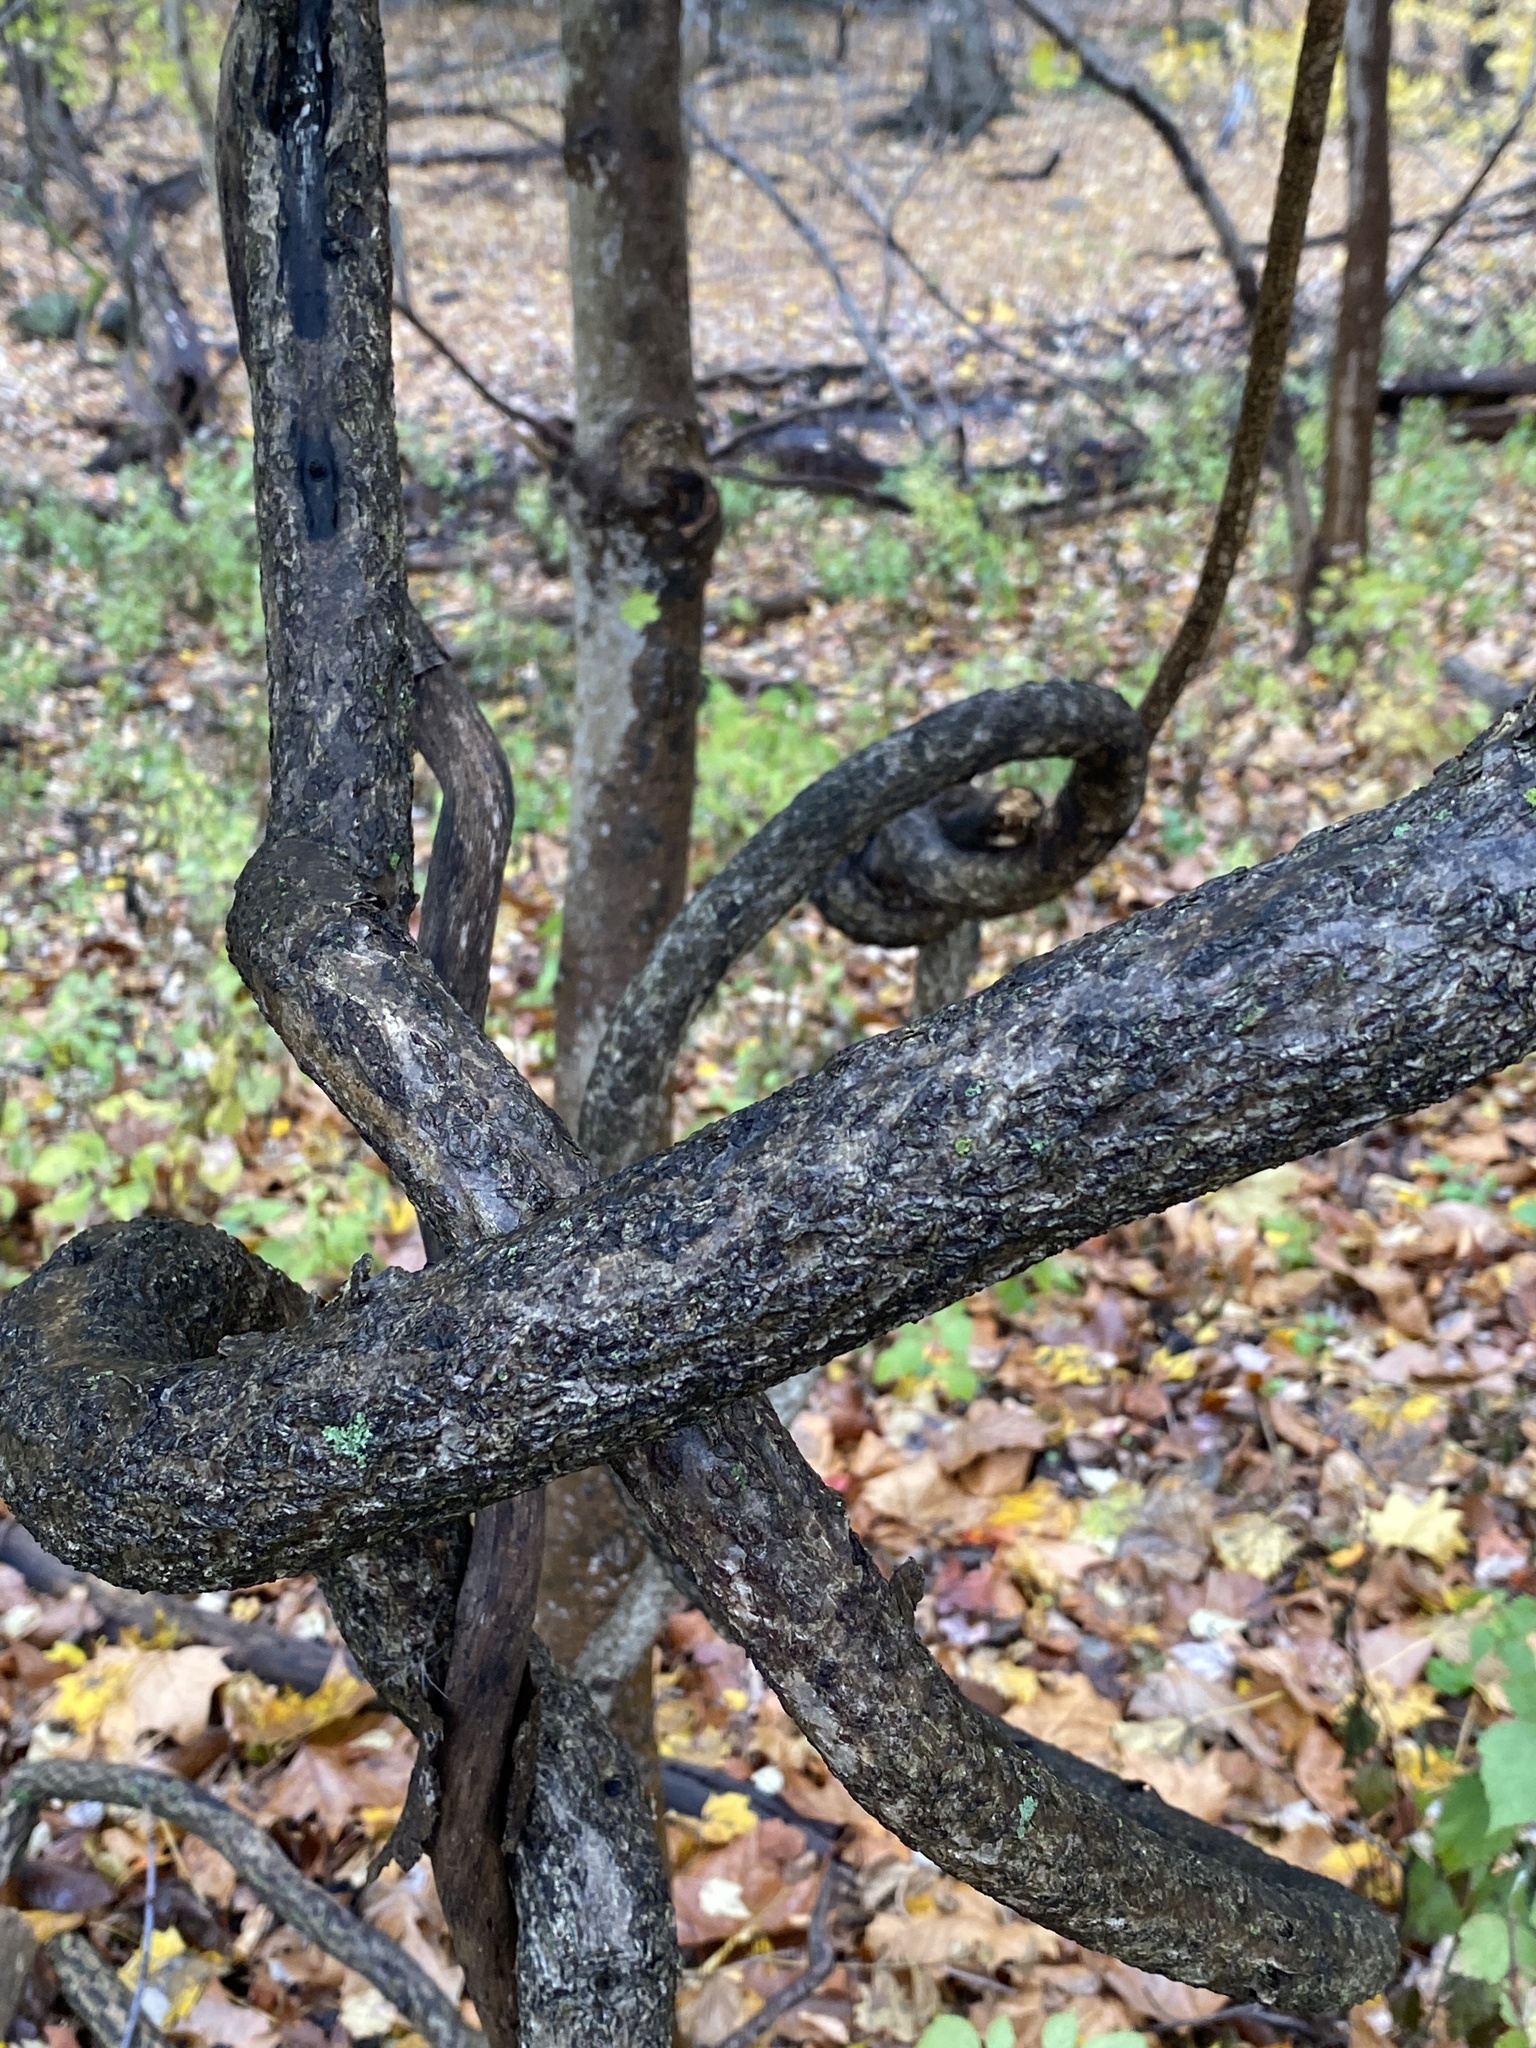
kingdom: Plantae
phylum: Tracheophyta
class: Magnoliopsida
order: Celastrales
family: Celastraceae
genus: Celastrus
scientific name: Celastrus orbiculatus
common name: Oriental bittersweet
